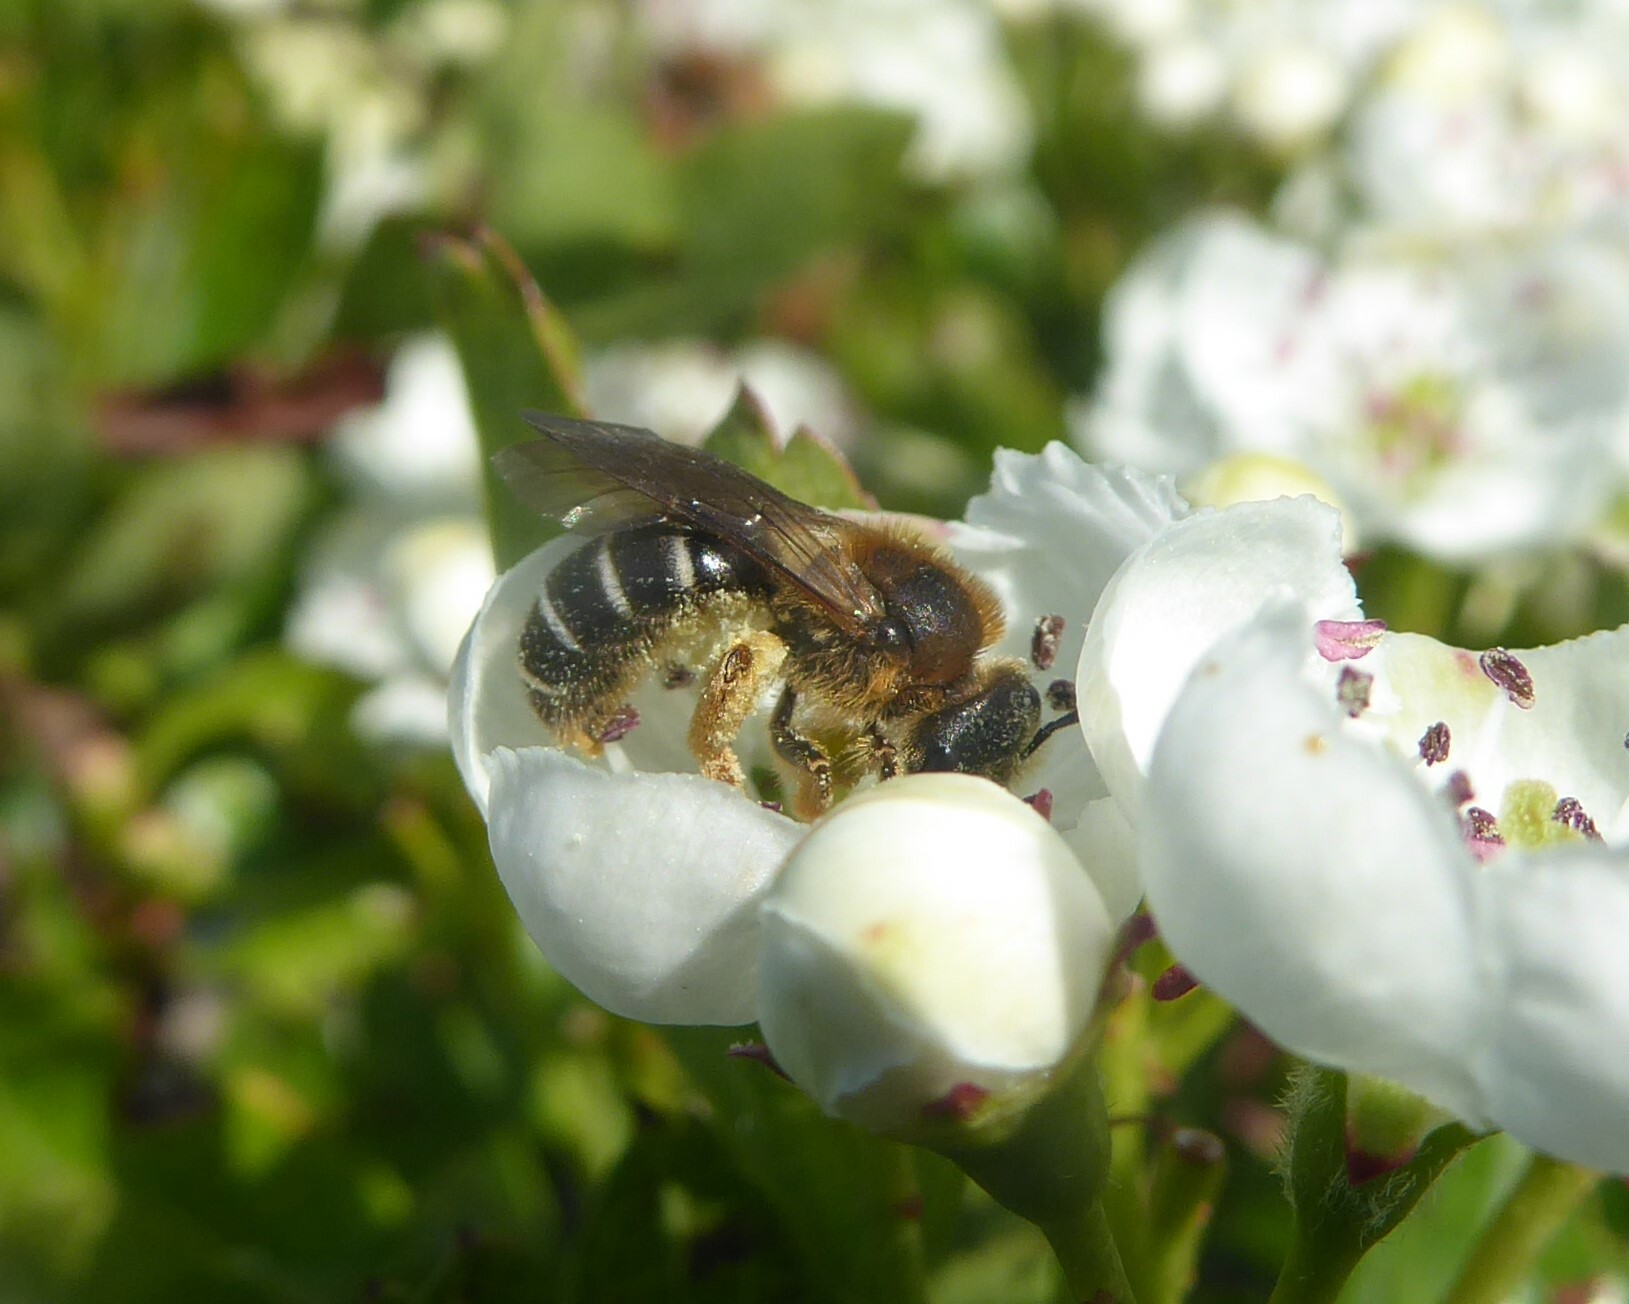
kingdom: Animalia
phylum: Arthropoda
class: Insecta
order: Hymenoptera
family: Halictidae
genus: Halictus
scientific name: Halictus rubicundus
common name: Orange-legged furrow bee
